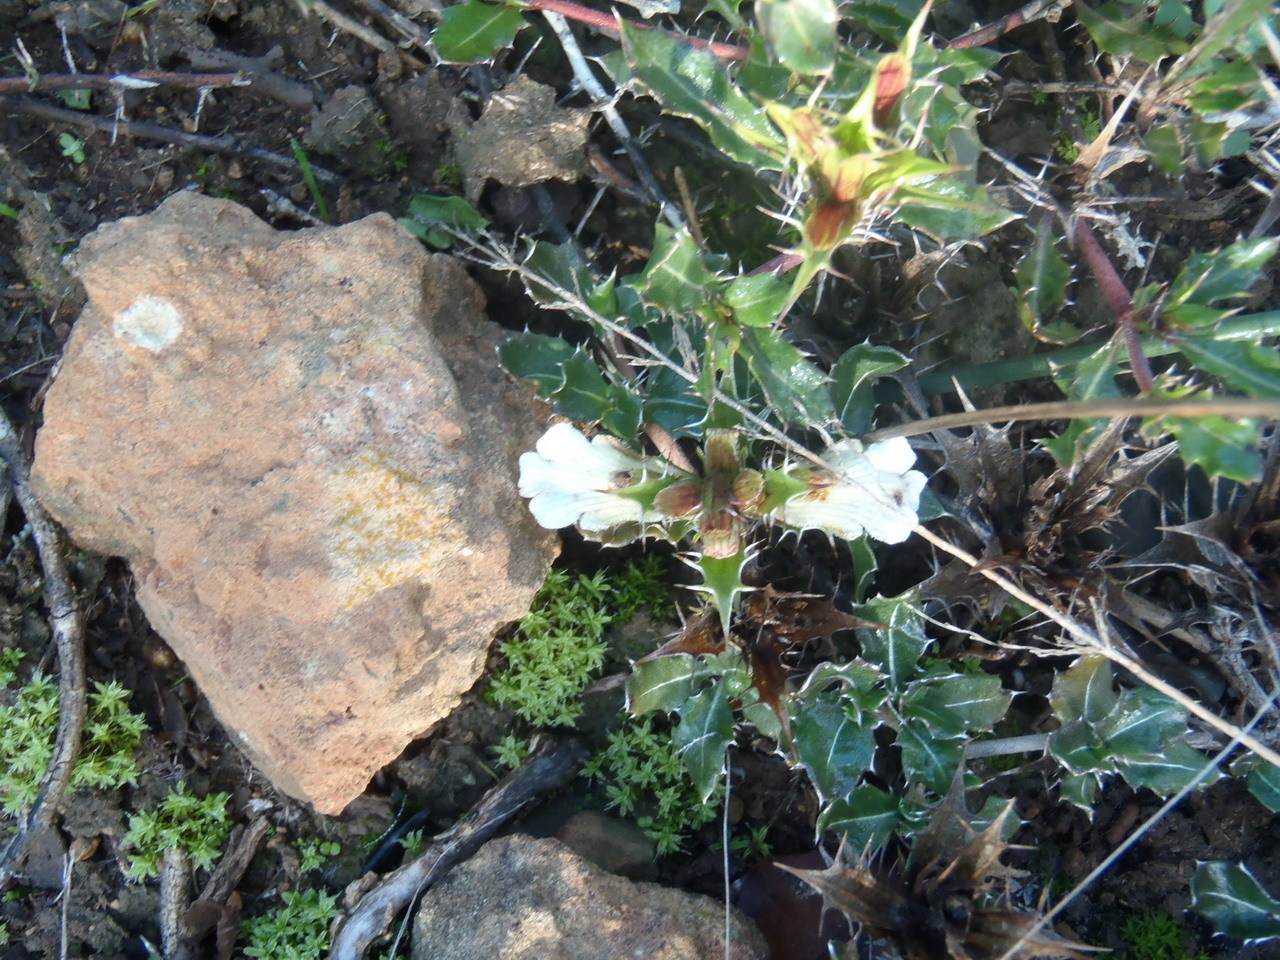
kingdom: Plantae
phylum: Tracheophyta
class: Magnoliopsida
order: Lamiales
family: Acanthaceae
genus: Blepharis
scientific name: Blepharis capensis
